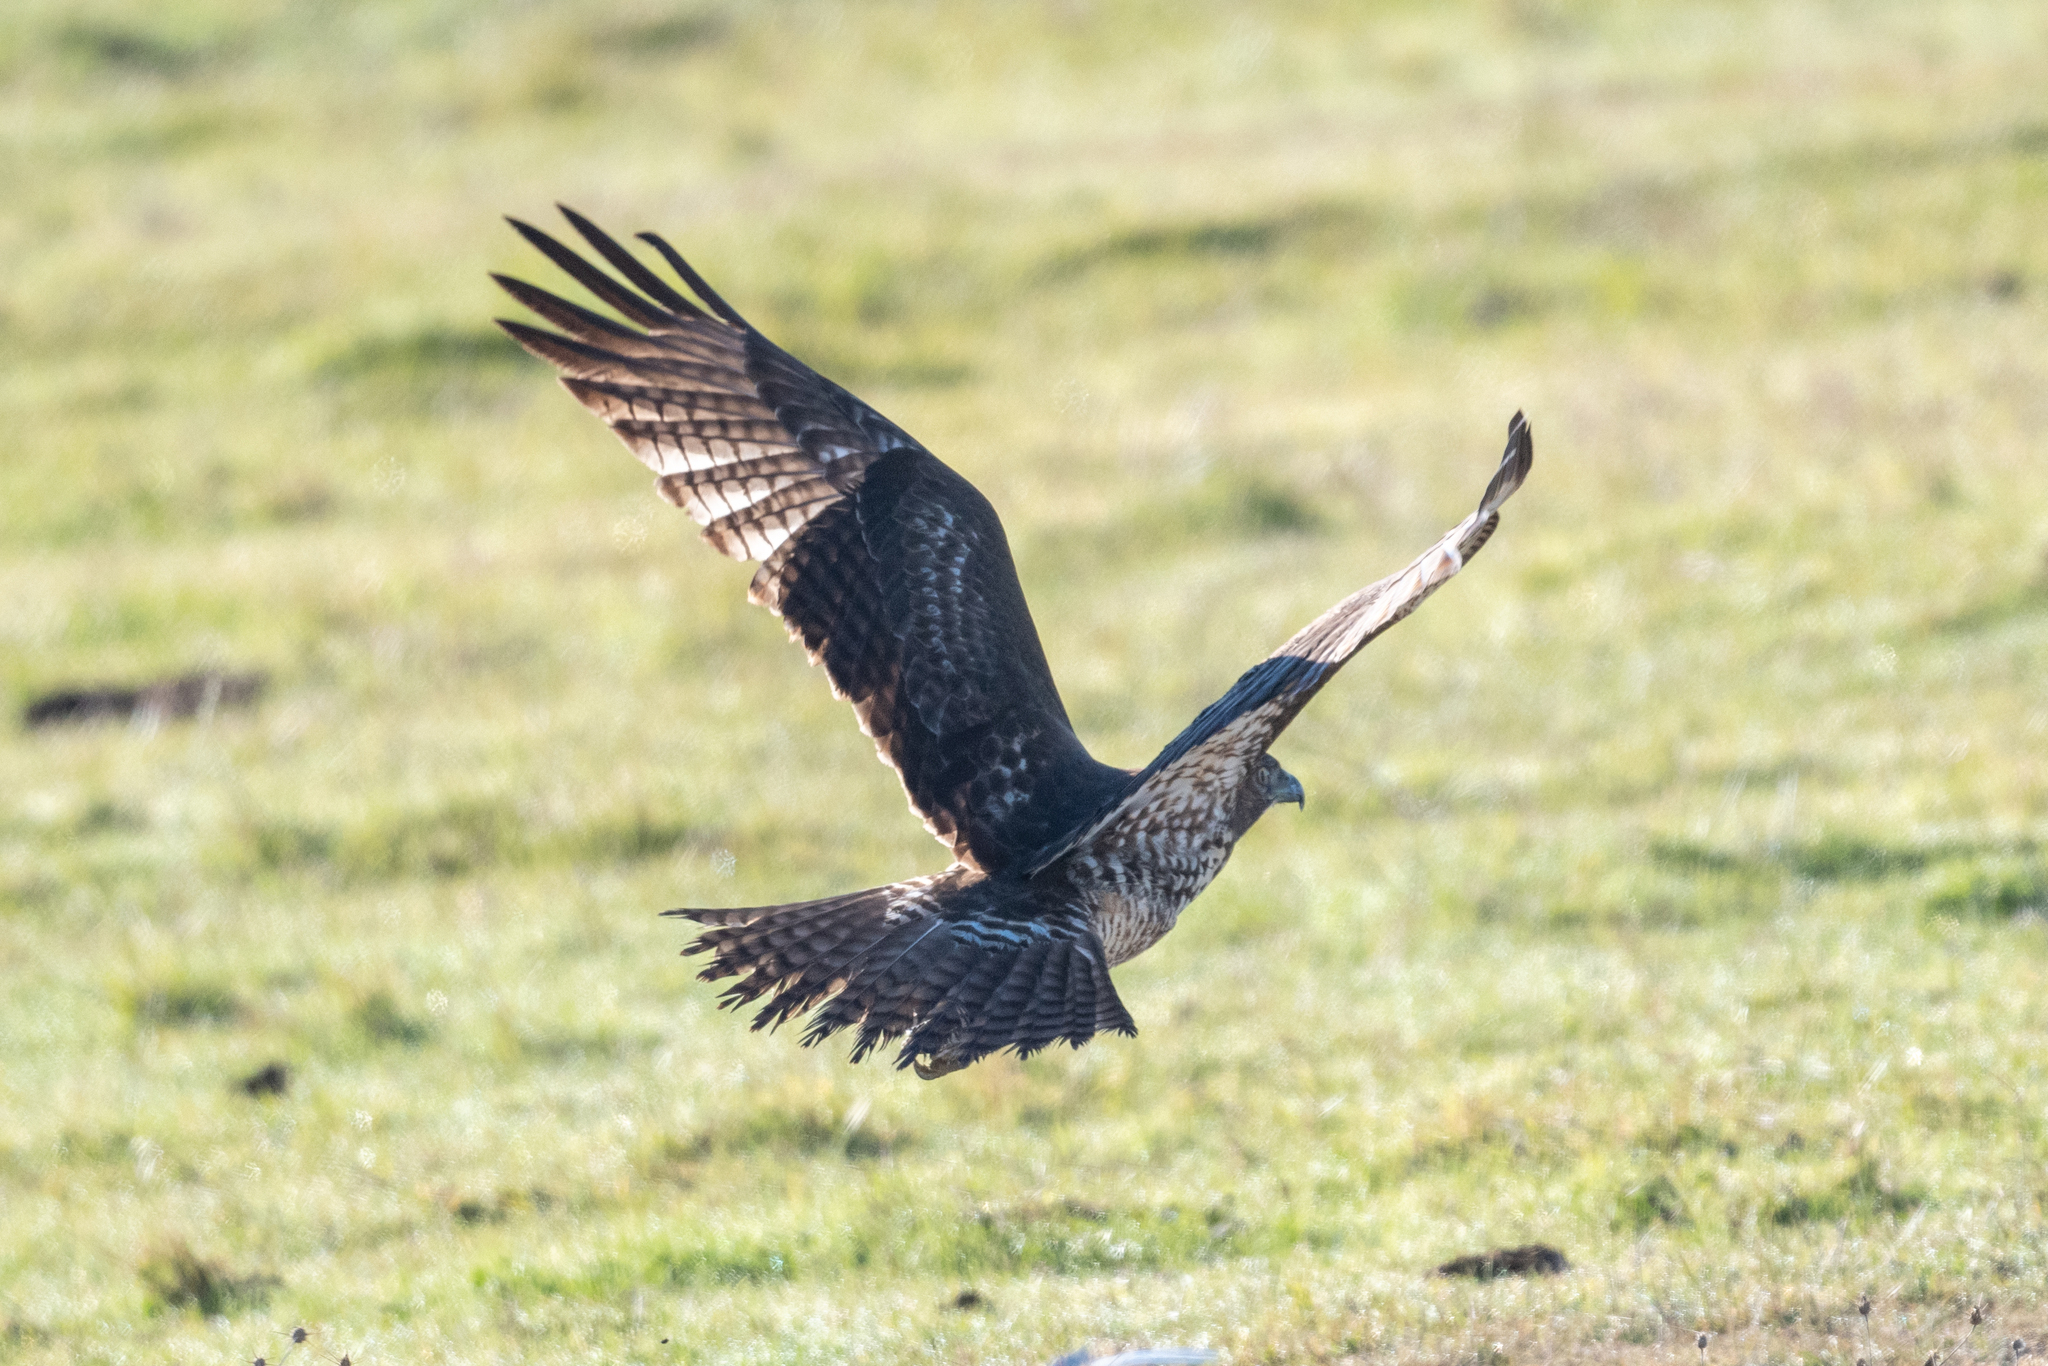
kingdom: Animalia
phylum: Chordata
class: Aves
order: Accipitriformes
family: Accipitridae
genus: Buteo
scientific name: Buteo jamaicensis
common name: Red-tailed hawk
